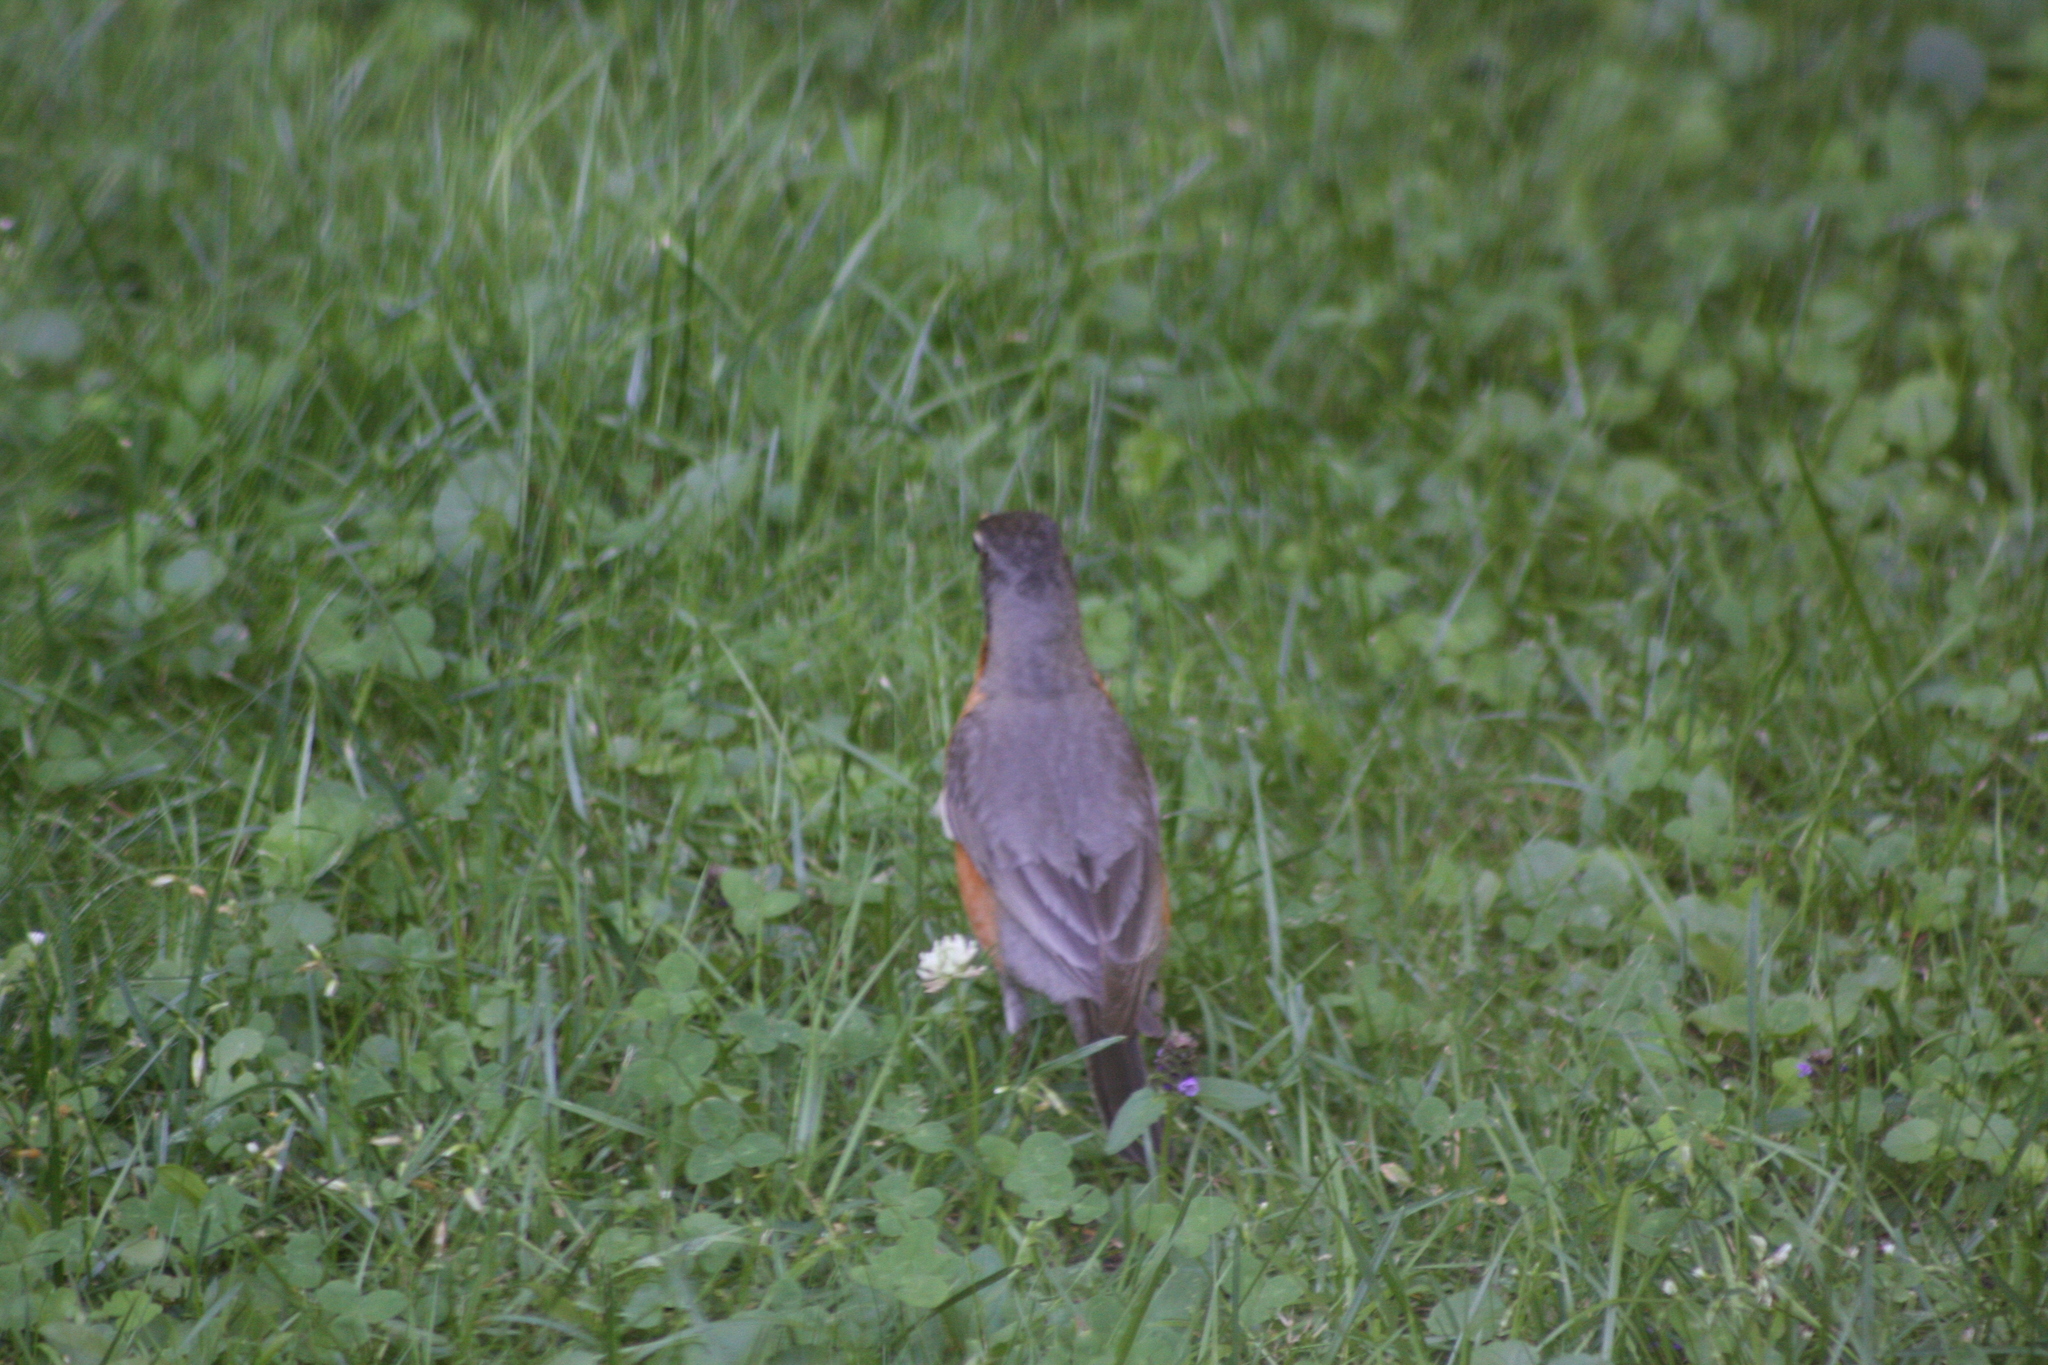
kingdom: Animalia
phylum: Chordata
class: Aves
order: Passeriformes
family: Turdidae
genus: Turdus
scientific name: Turdus migratorius
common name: American robin
